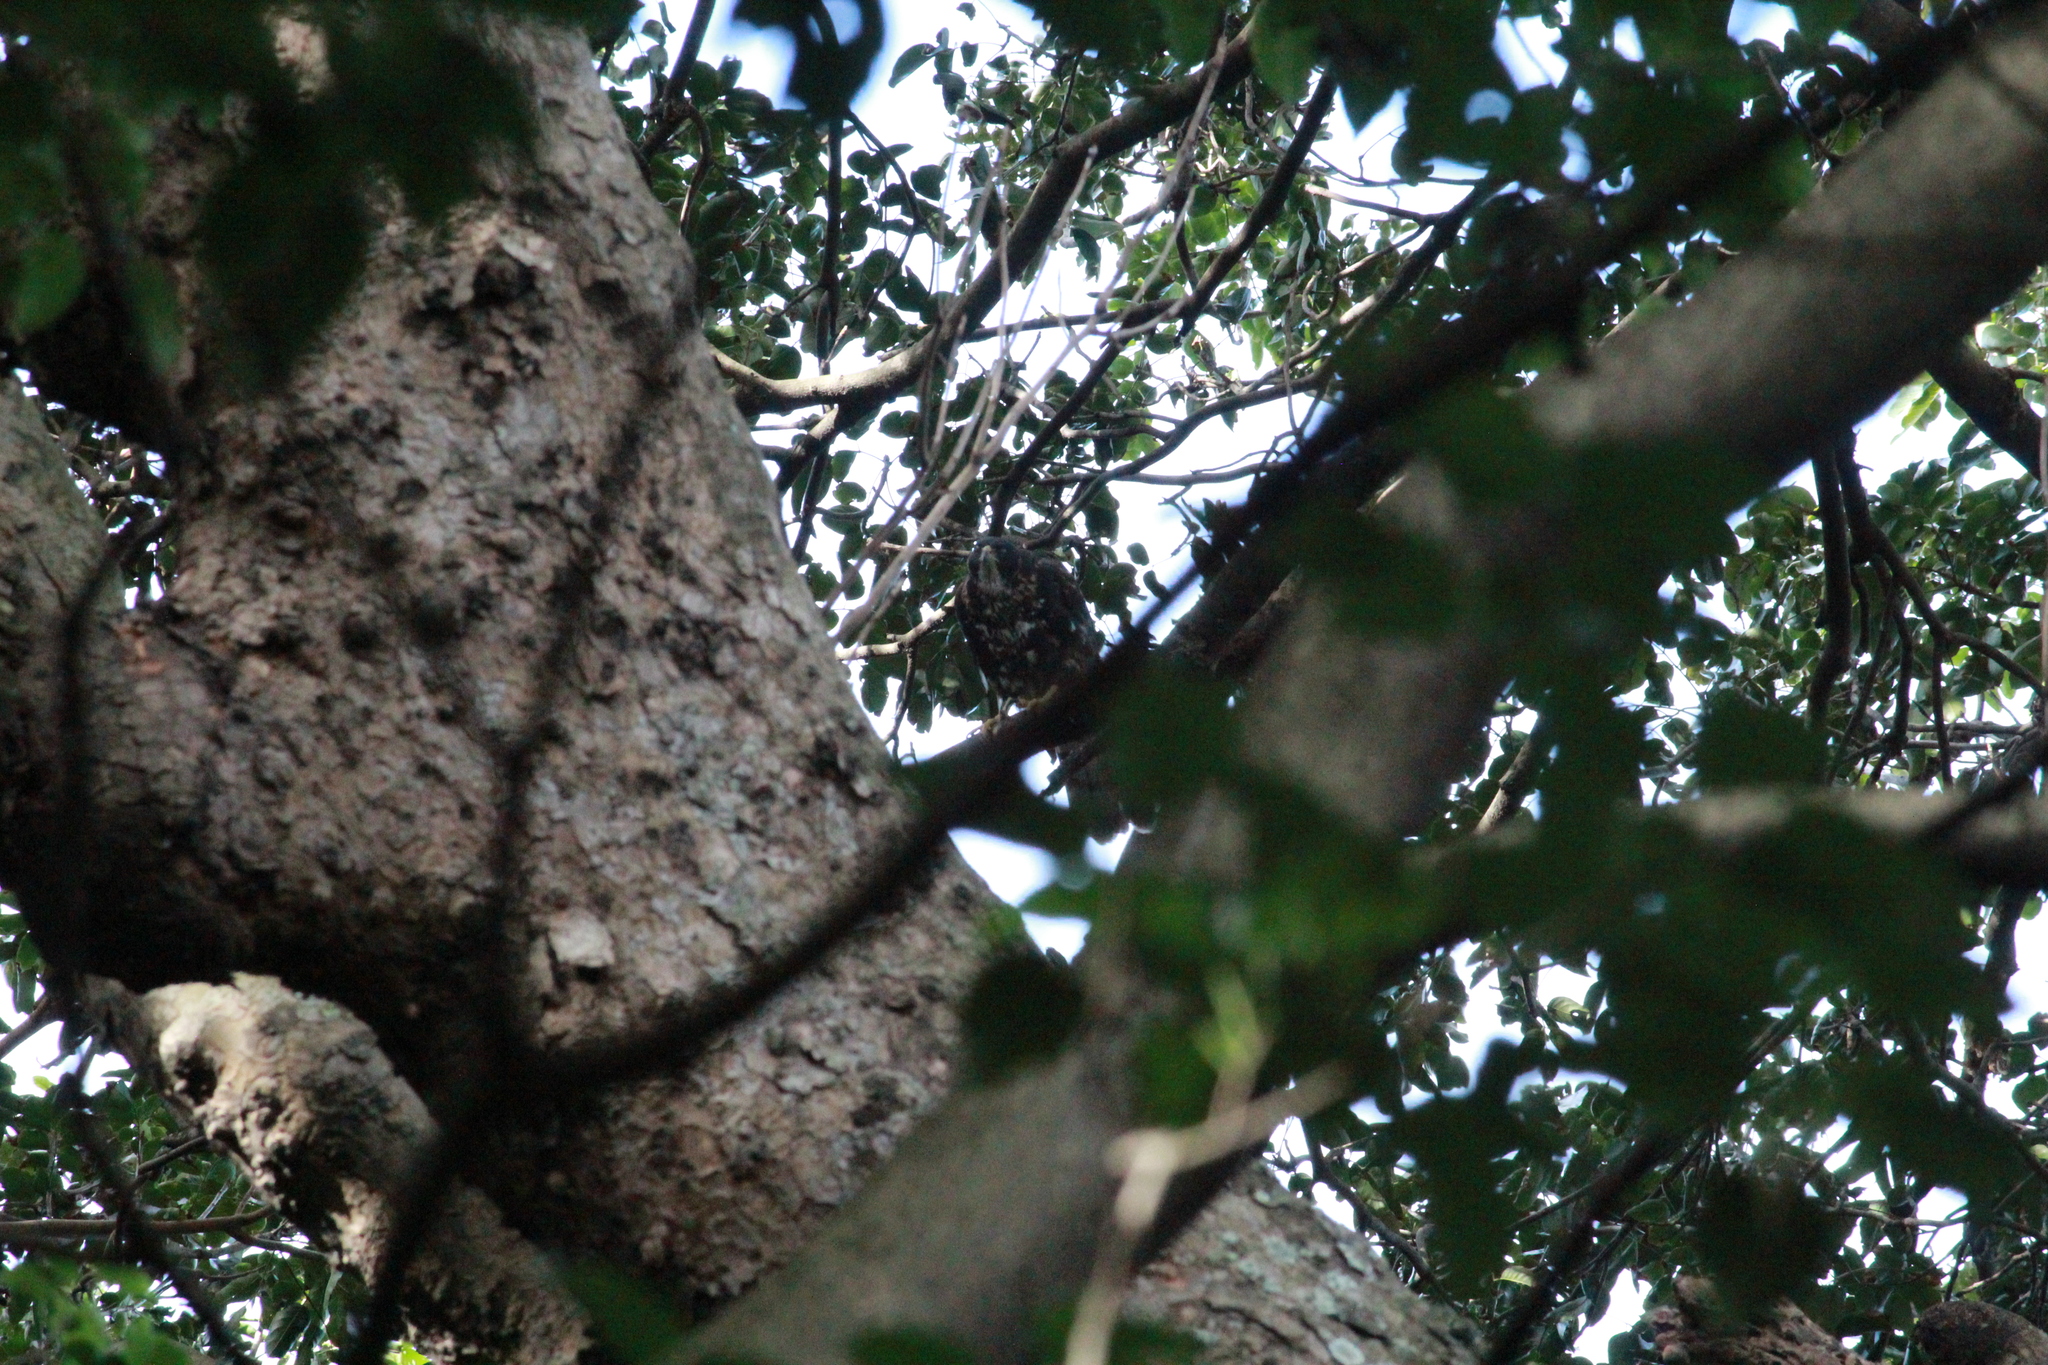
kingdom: Animalia
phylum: Chordata
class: Aves
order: Accipitriformes
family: Accipitridae
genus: Accipiter
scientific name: Accipiter melanoleucus
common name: Black sparrowhawk
